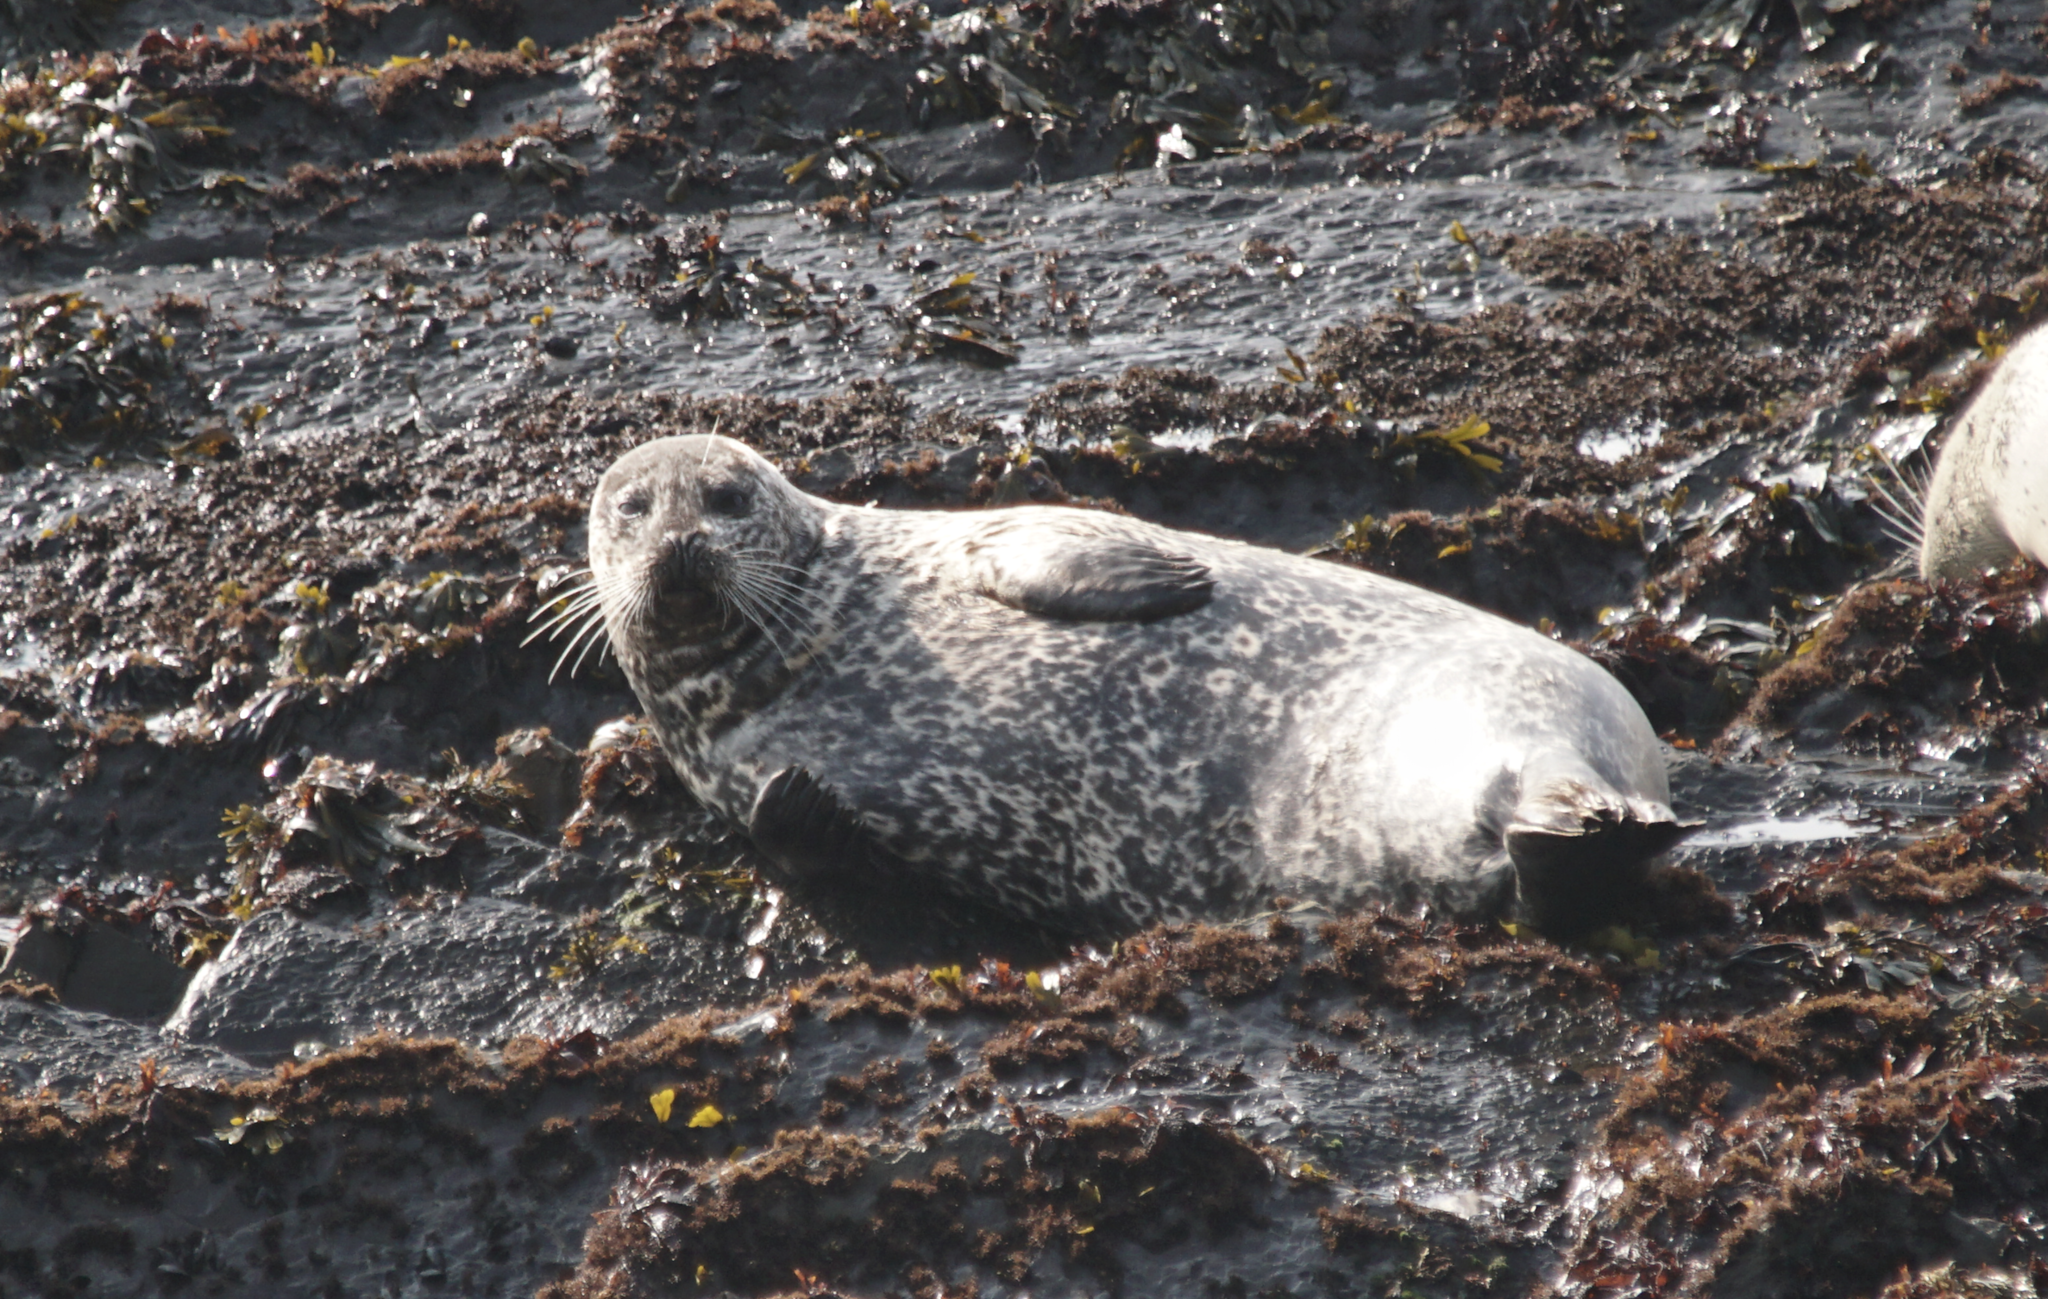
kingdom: Animalia
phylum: Chordata
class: Mammalia
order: Carnivora
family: Phocidae
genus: Phoca
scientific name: Phoca vitulina
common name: Harbor seal
